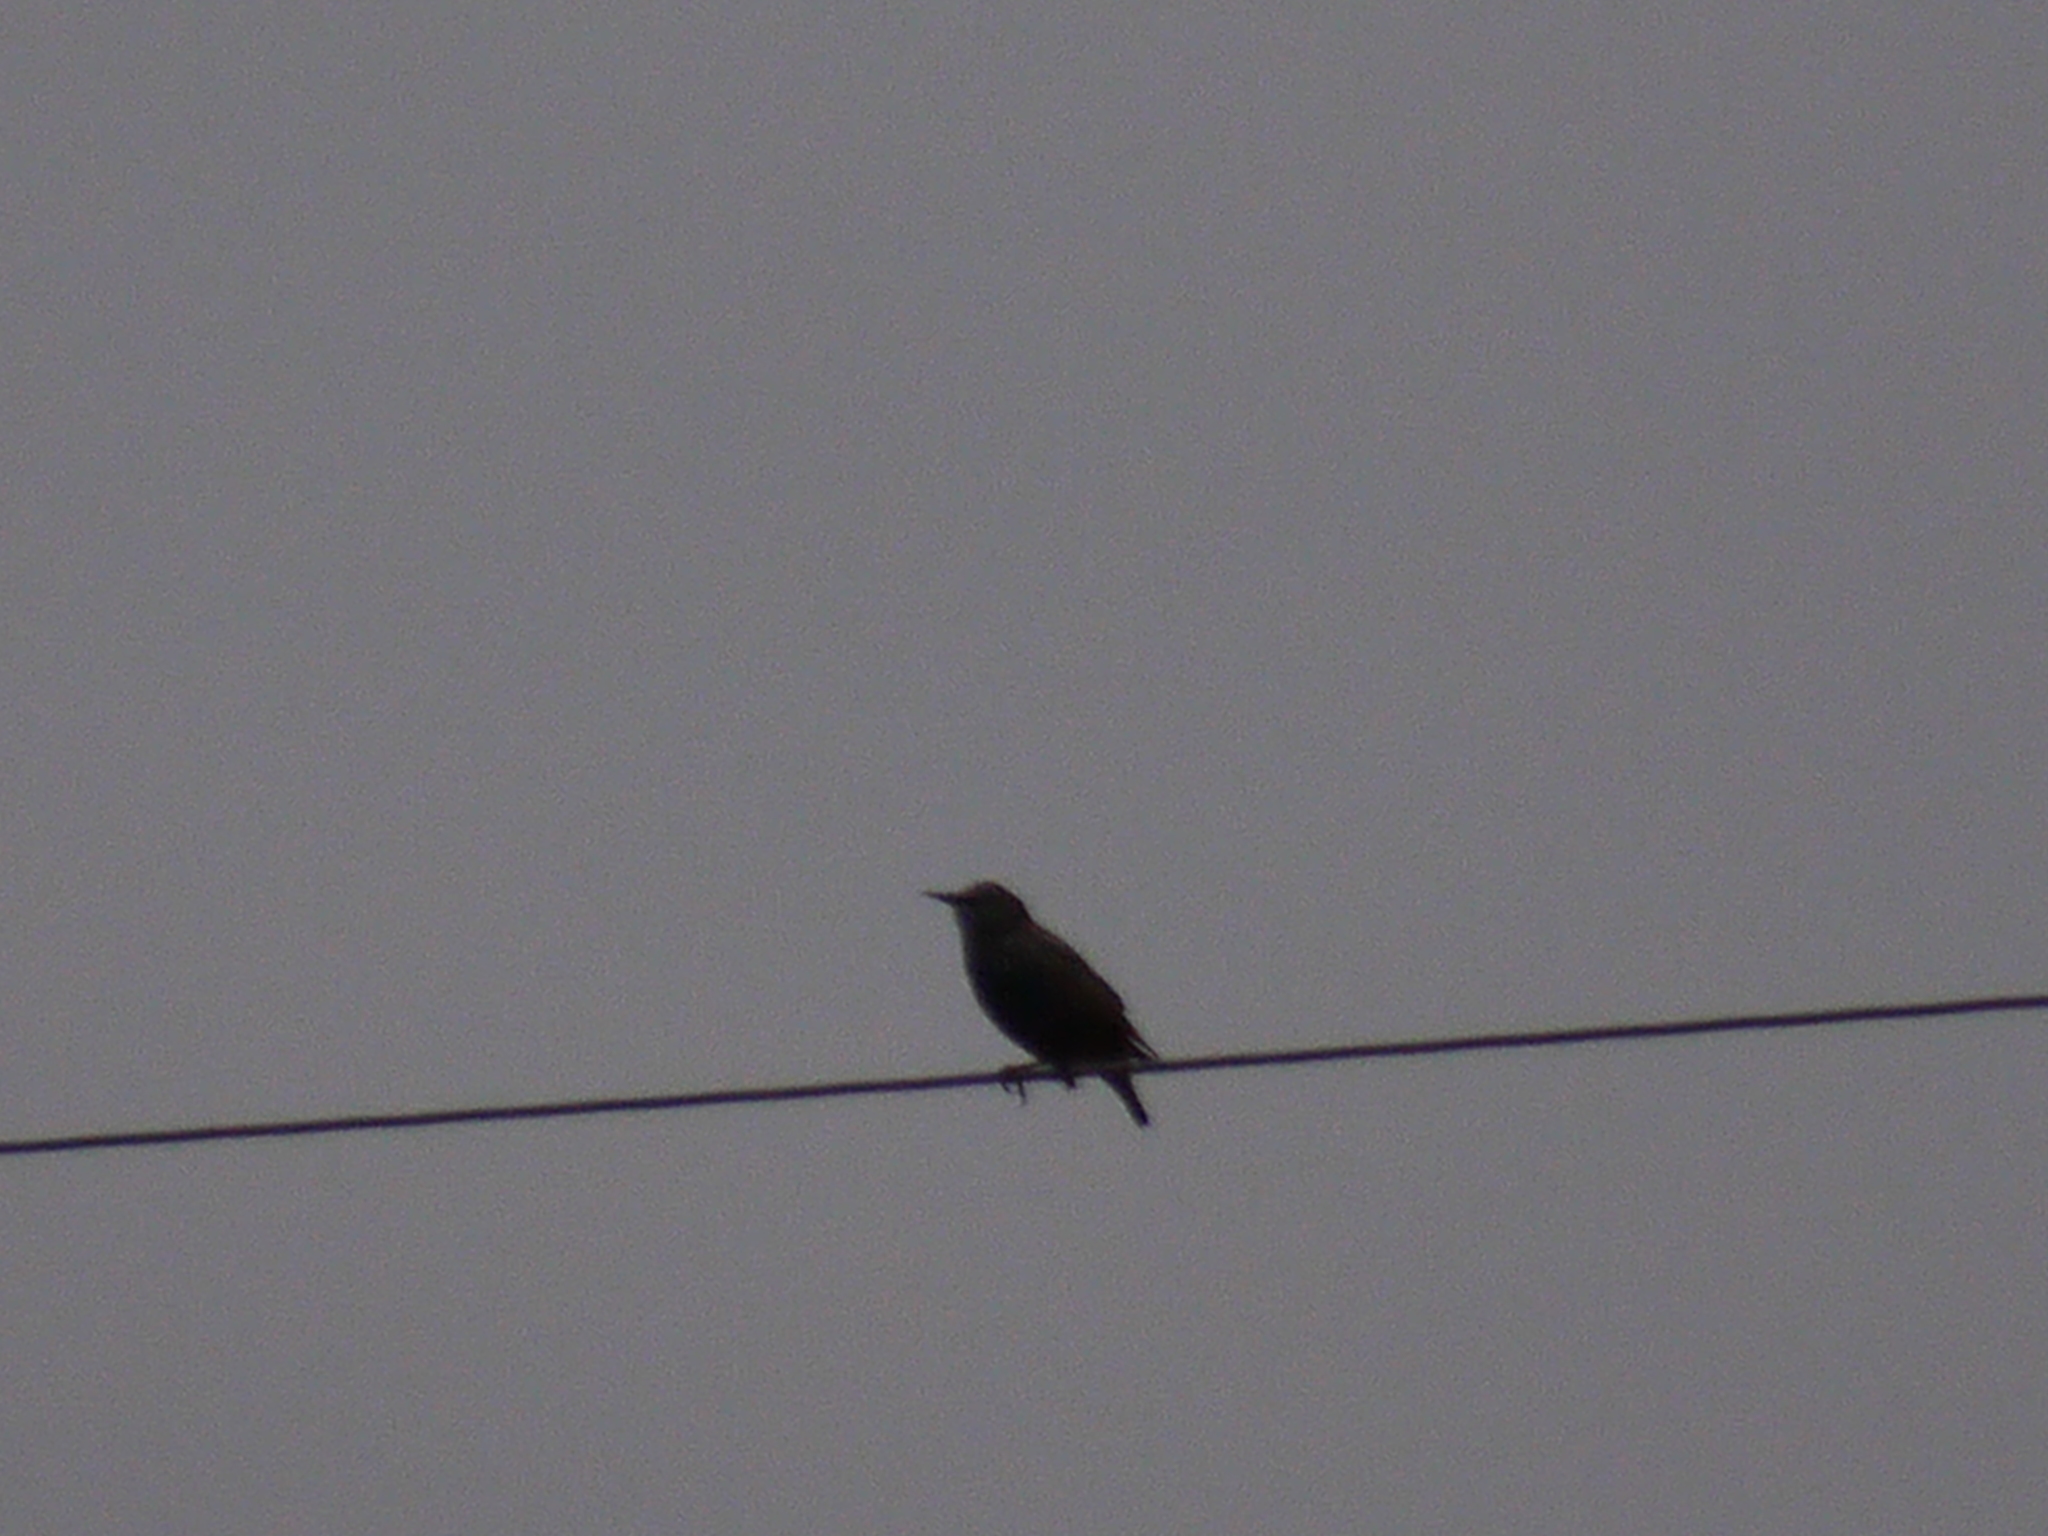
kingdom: Animalia
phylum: Chordata
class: Aves
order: Passeriformes
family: Sturnidae
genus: Sturnus
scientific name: Sturnus vulgaris
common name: Common starling
